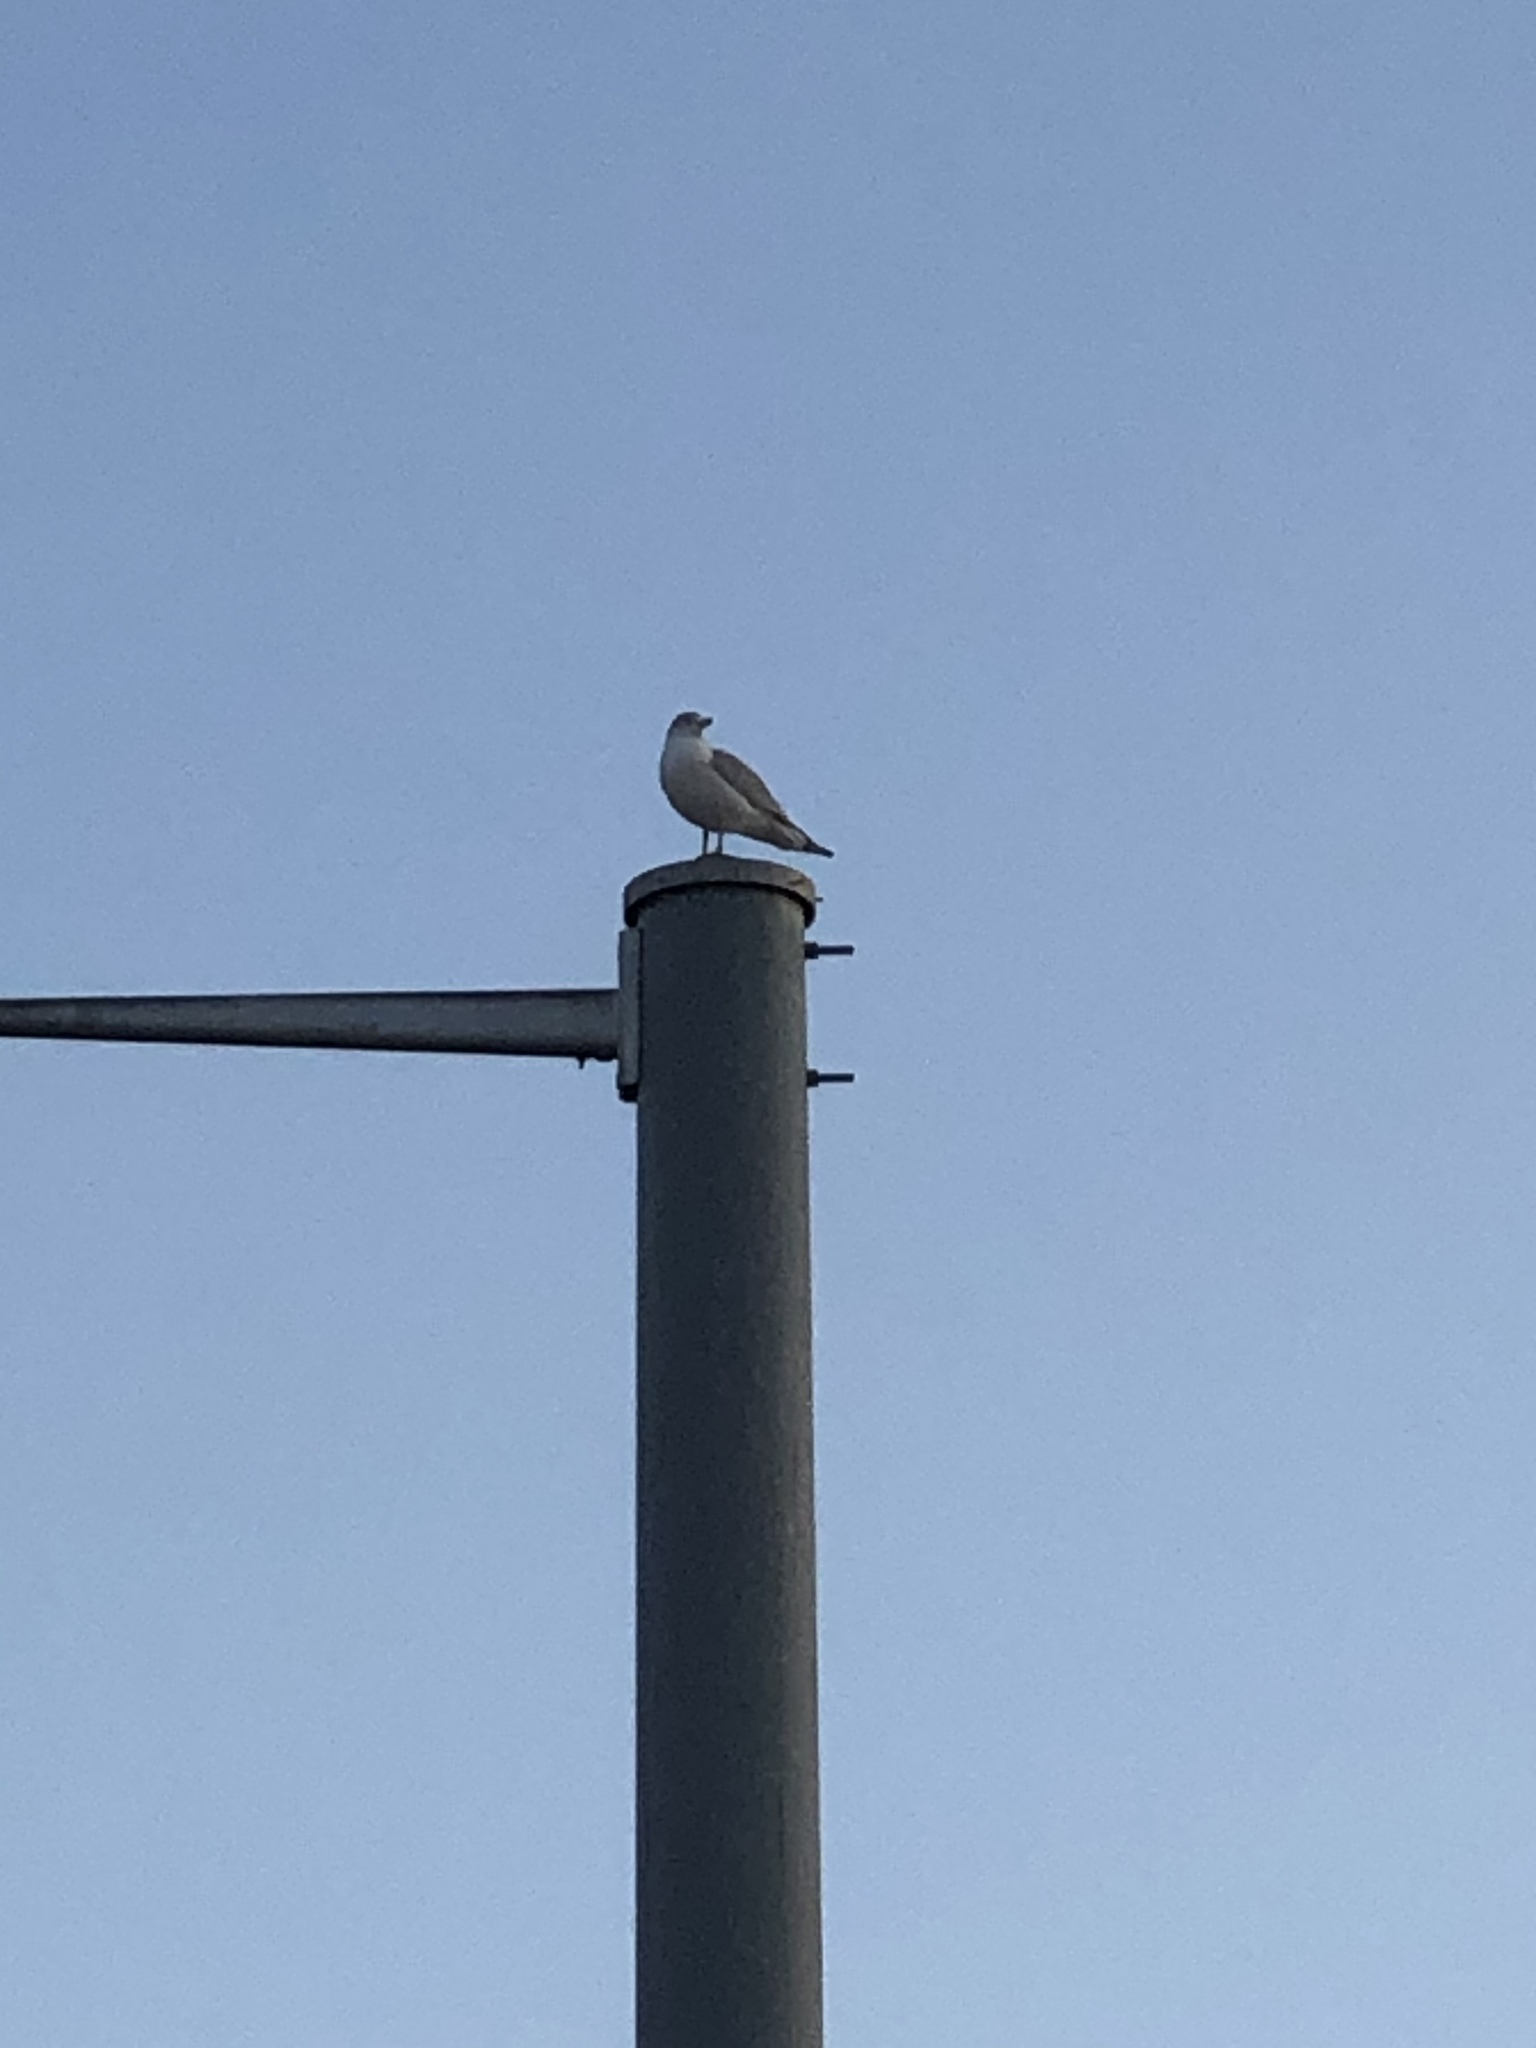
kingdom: Animalia
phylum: Chordata
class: Aves
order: Charadriiformes
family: Laridae
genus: Larus
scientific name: Larus delawarensis
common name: Ring-billed gull
